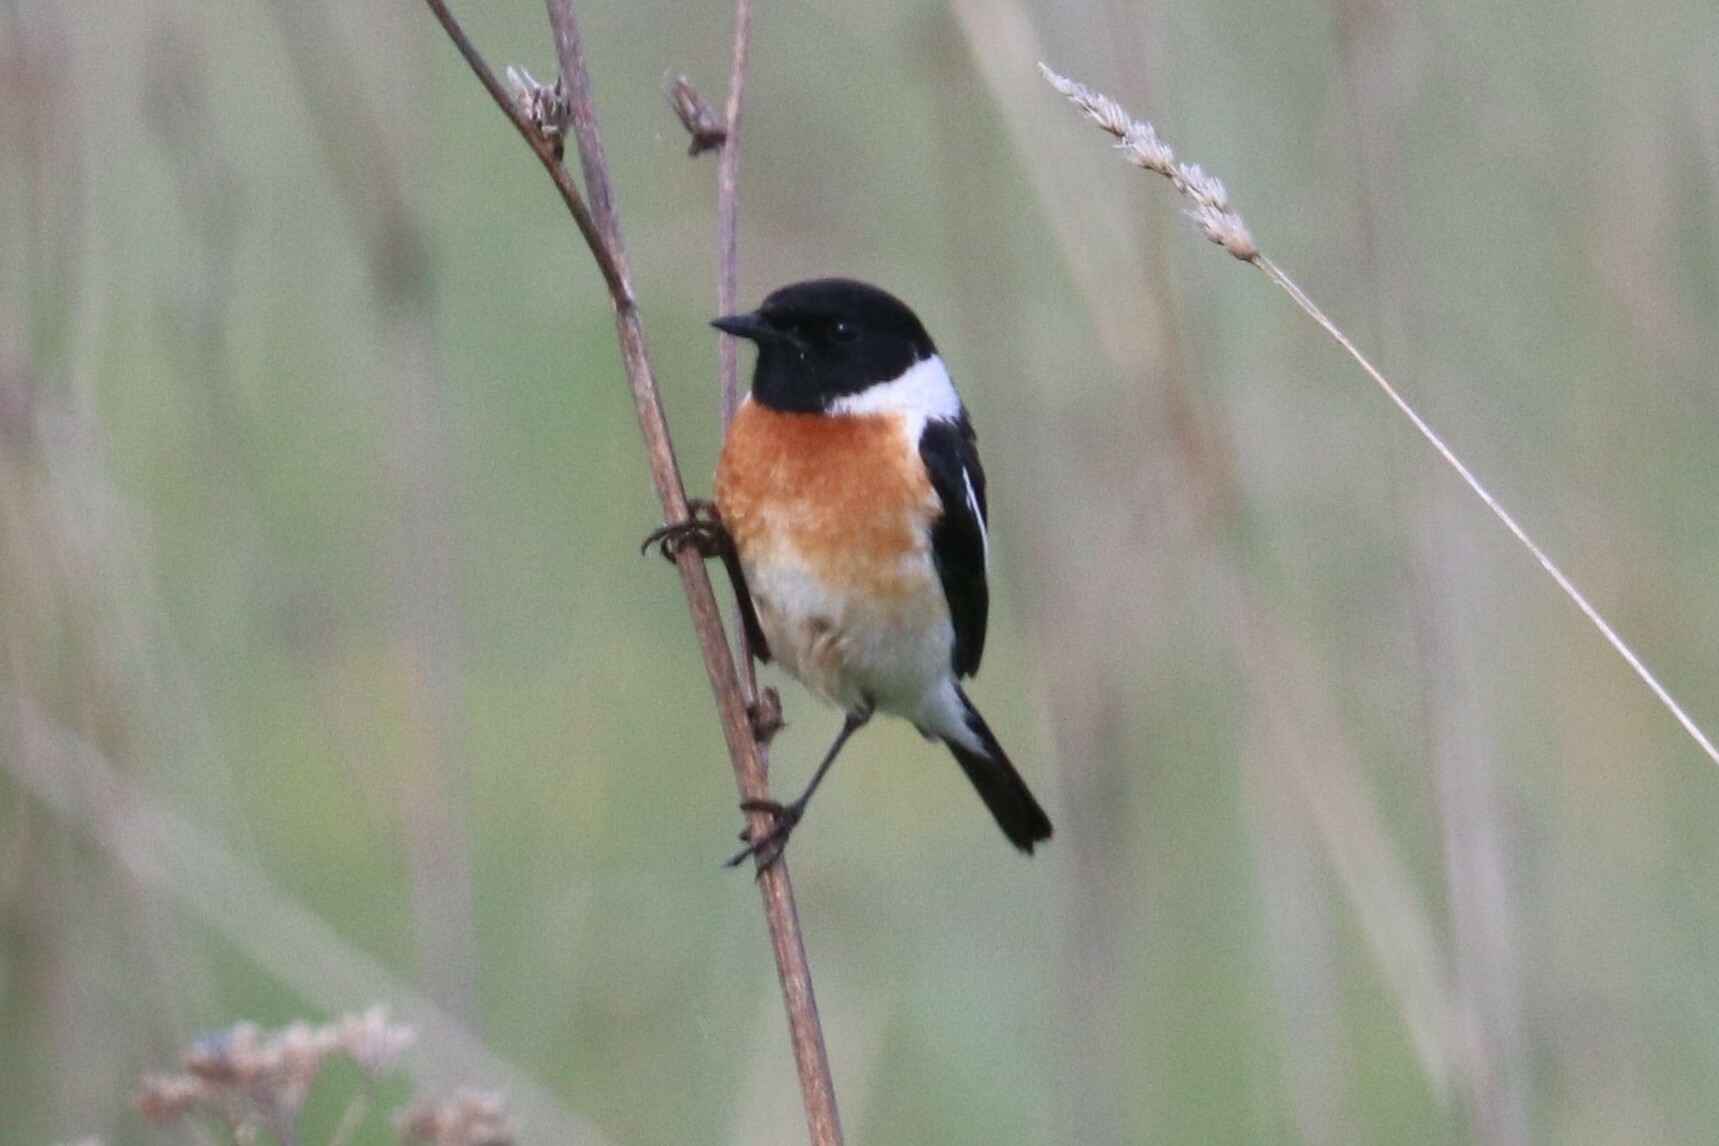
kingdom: Animalia
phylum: Chordata
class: Aves
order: Passeriformes
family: Muscicapidae
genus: Saxicola
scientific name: Saxicola maurus
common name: Siberian stonechat
